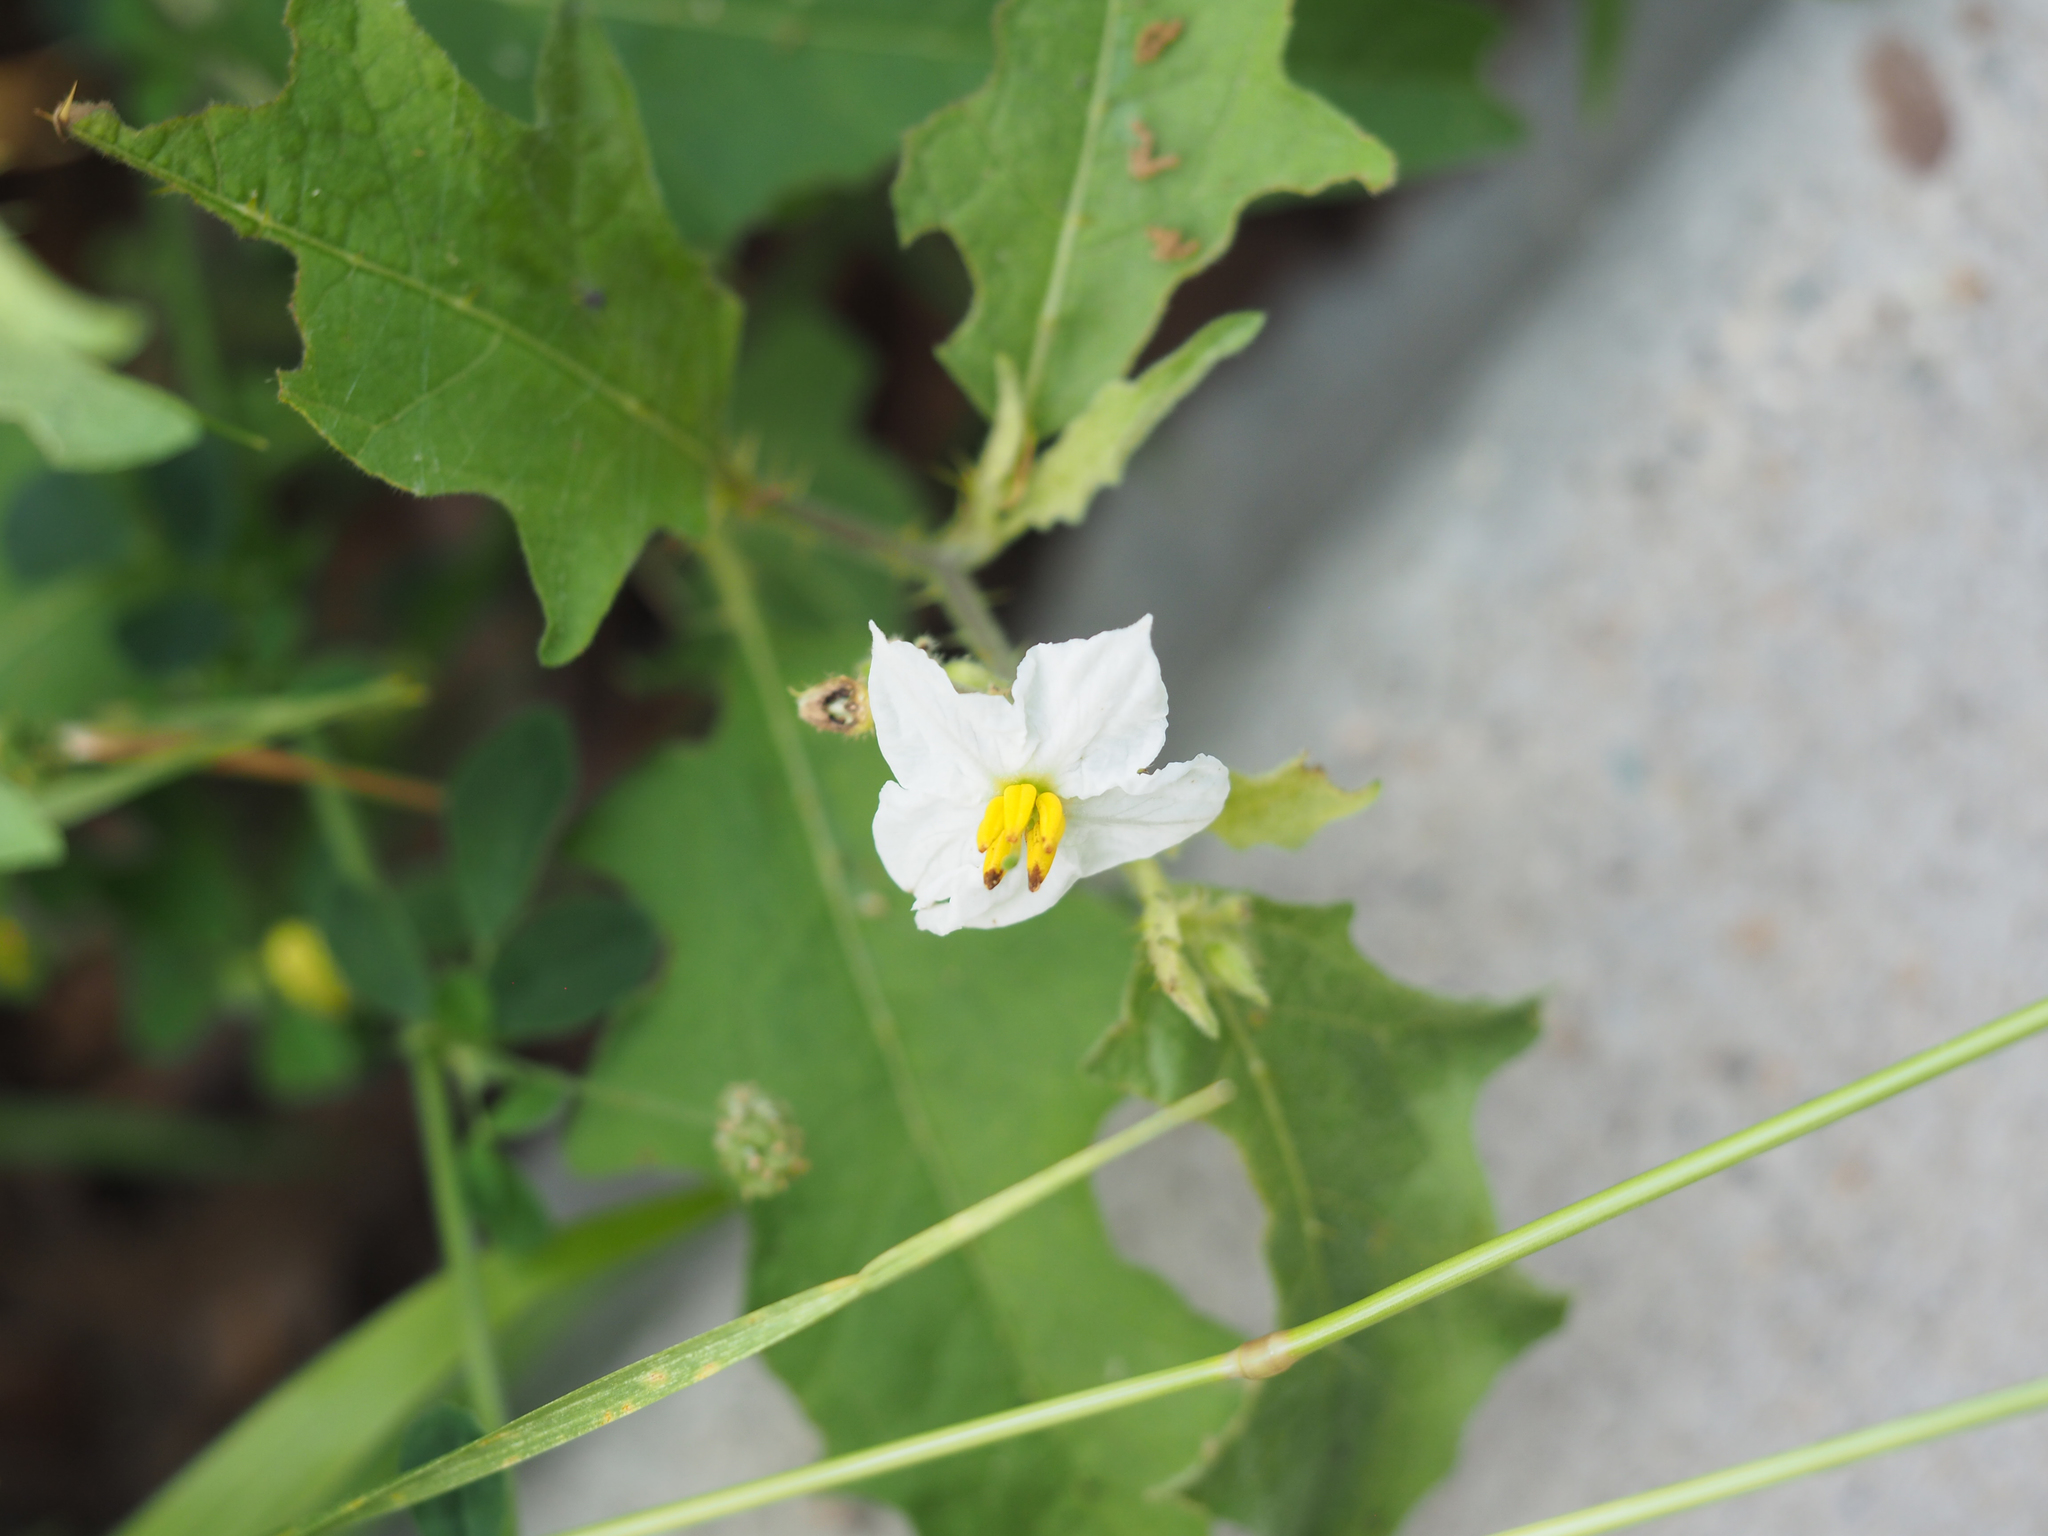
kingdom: Plantae
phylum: Tracheophyta
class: Magnoliopsida
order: Solanales
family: Solanaceae
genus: Solanum
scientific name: Solanum carolinense
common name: Horse-nettle
